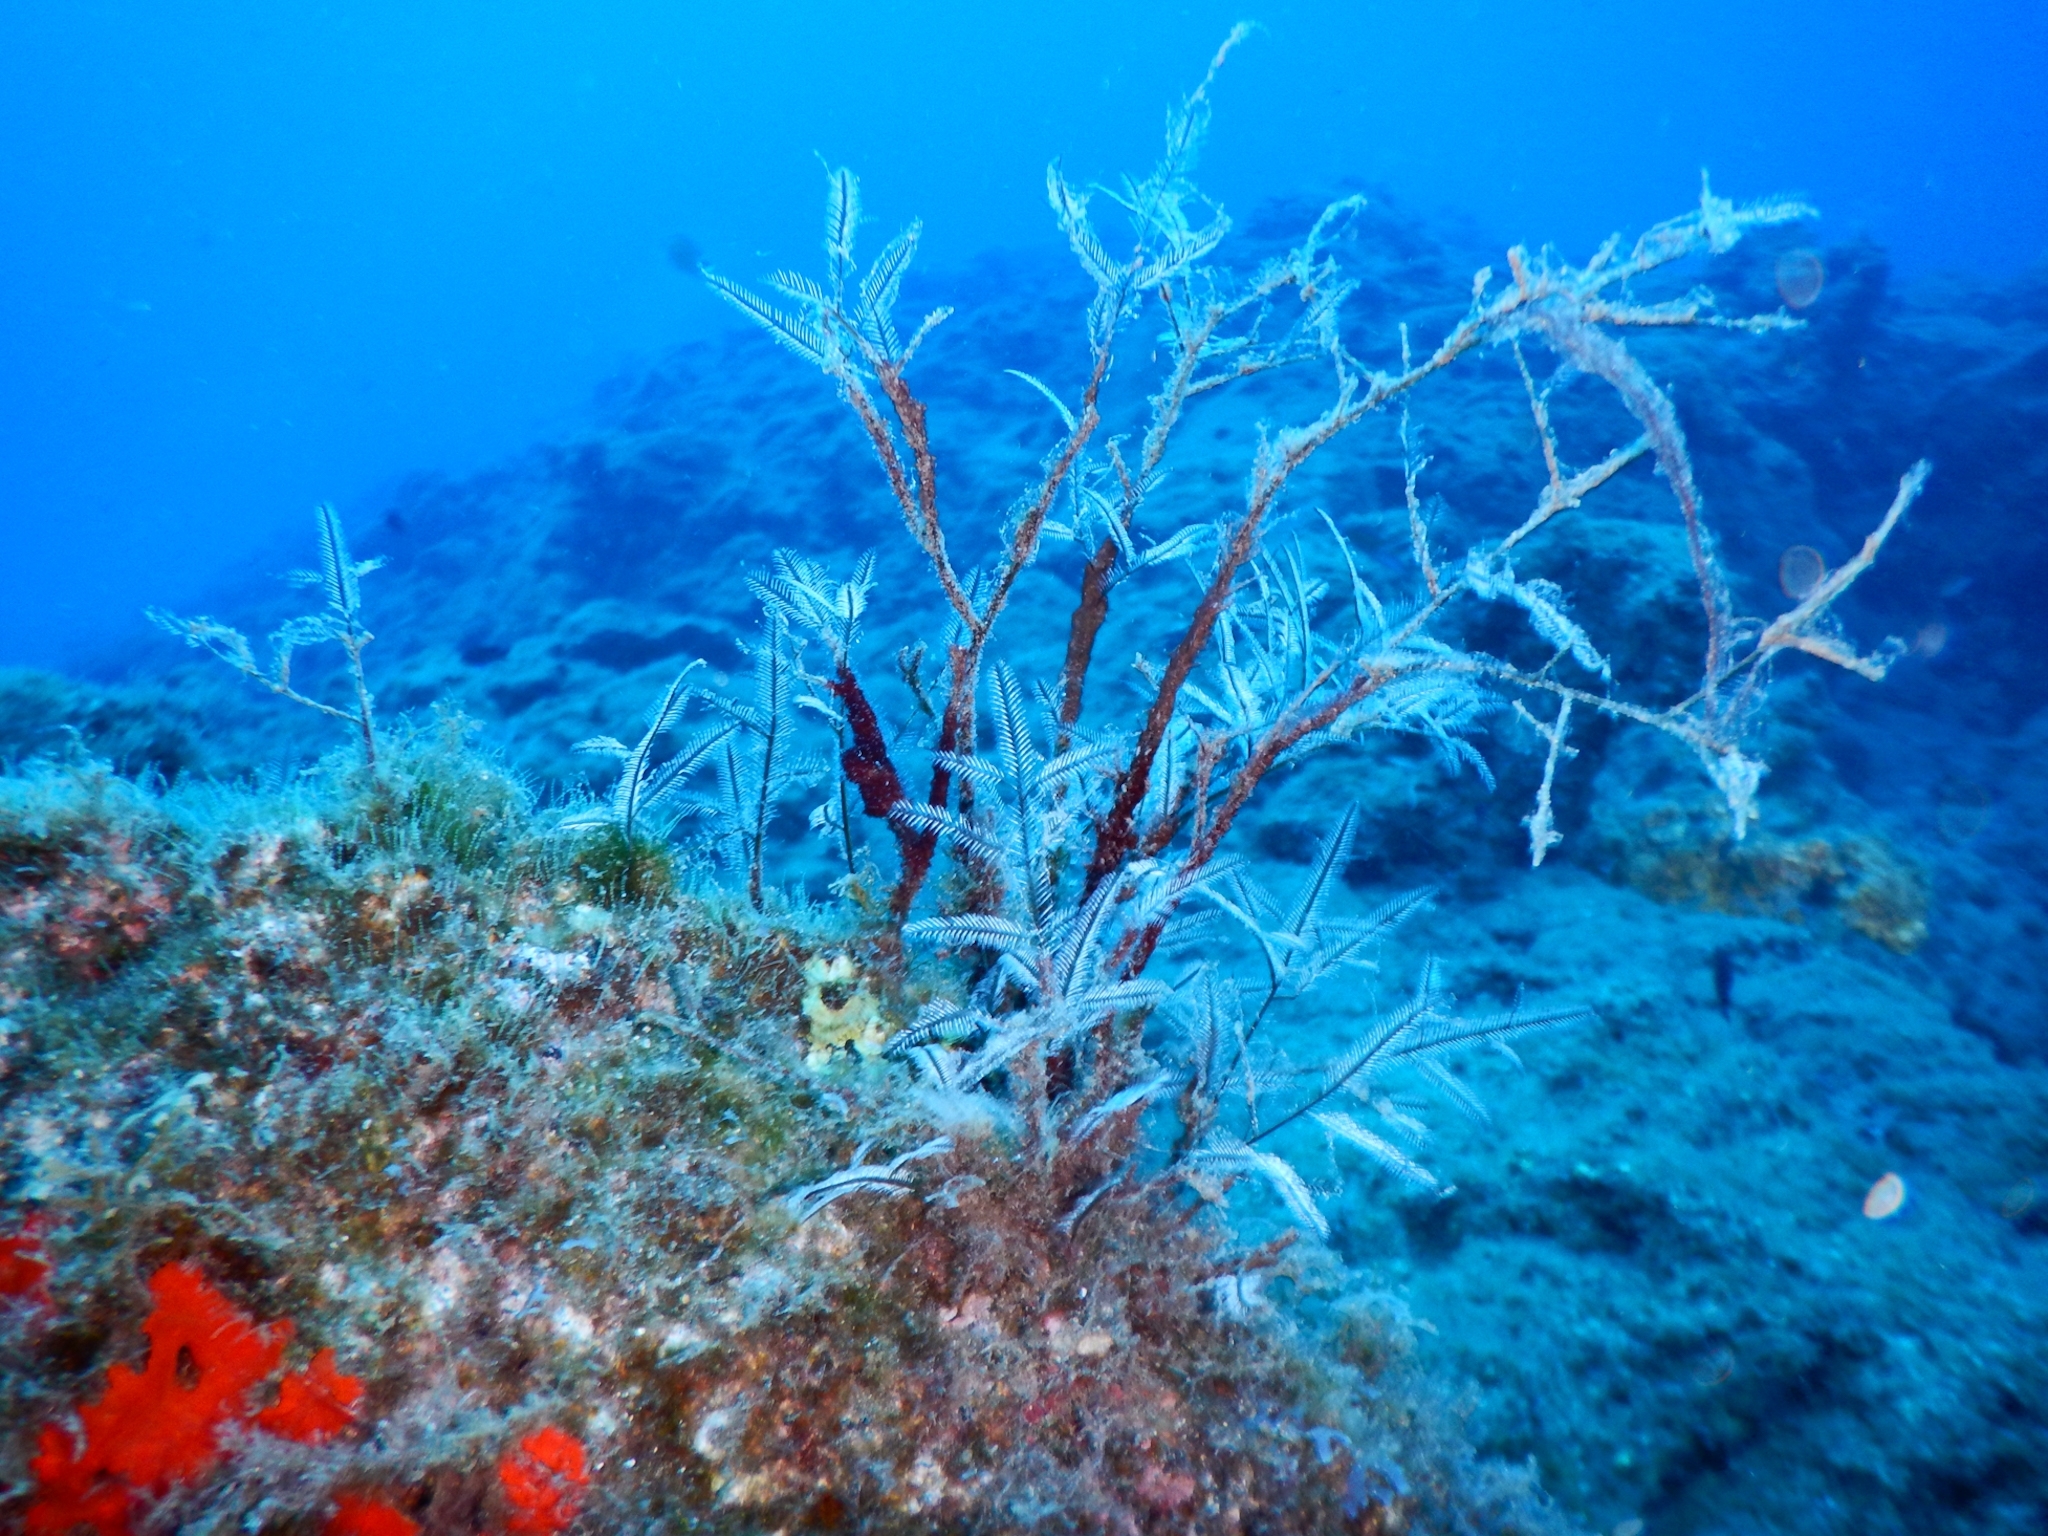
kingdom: Animalia
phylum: Cnidaria
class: Hydrozoa
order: Leptothecata
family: Aglaopheniidae
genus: Macrorhynchia
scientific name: Macrorhynchia philippina
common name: Stinging hydroid
